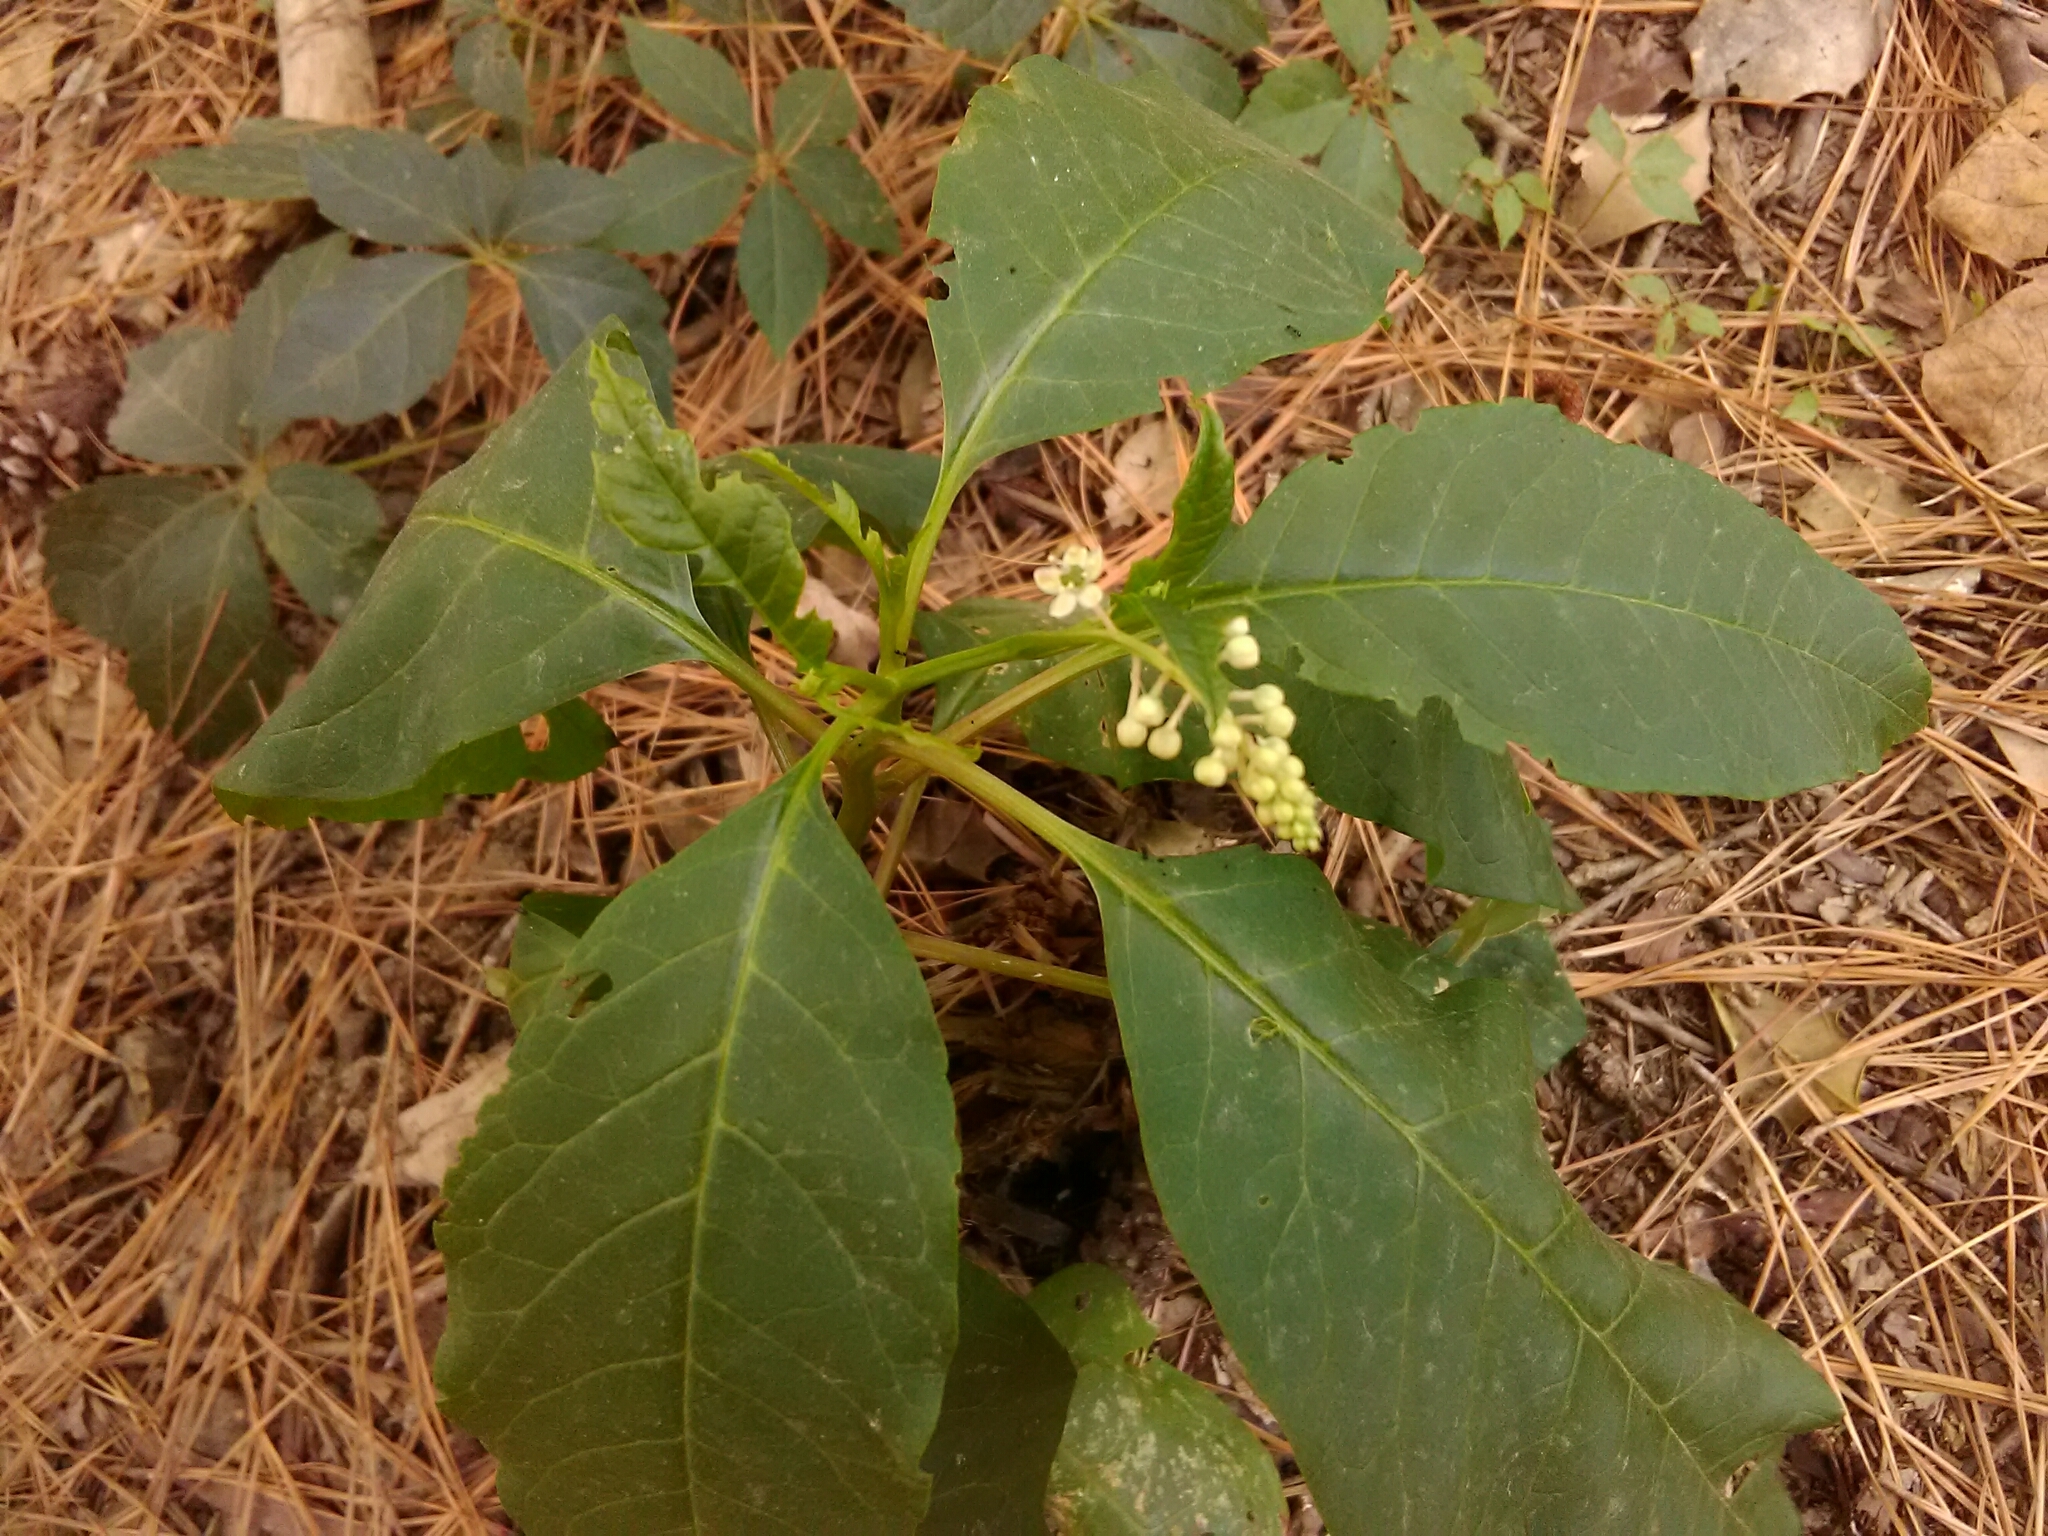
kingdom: Plantae
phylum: Tracheophyta
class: Magnoliopsida
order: Caryophyllales
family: Phytolaccaceae
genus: Phytolacca
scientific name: Phytolacca americana
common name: American pokeweed
